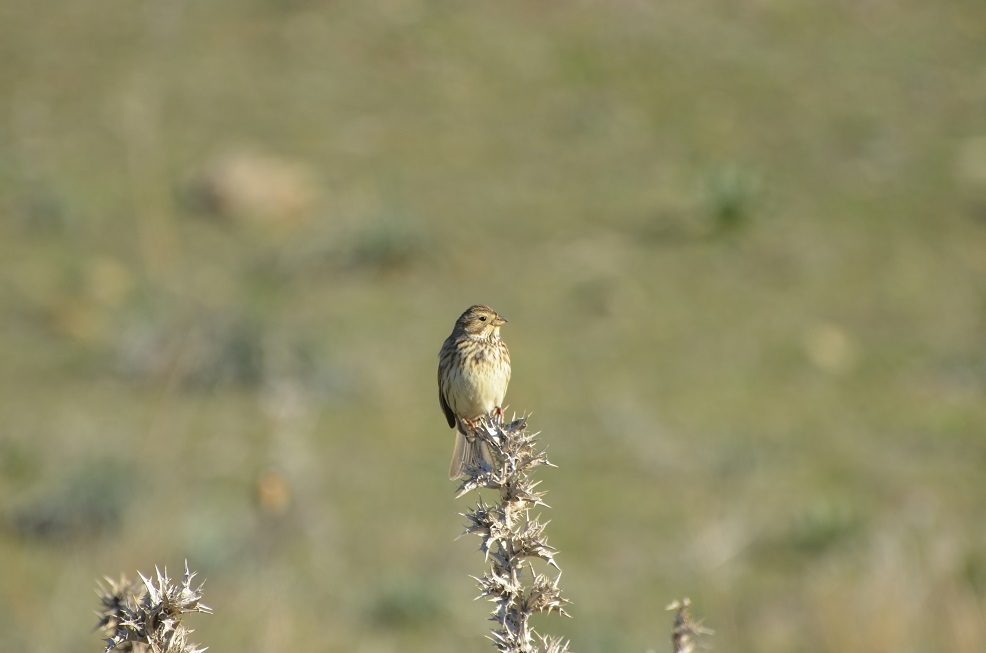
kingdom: Animalia
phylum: Chordata
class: Aves
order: Passeriformes
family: Emberizidae
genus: Emberiza
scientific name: Emberiza calandra
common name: Corn bunting
